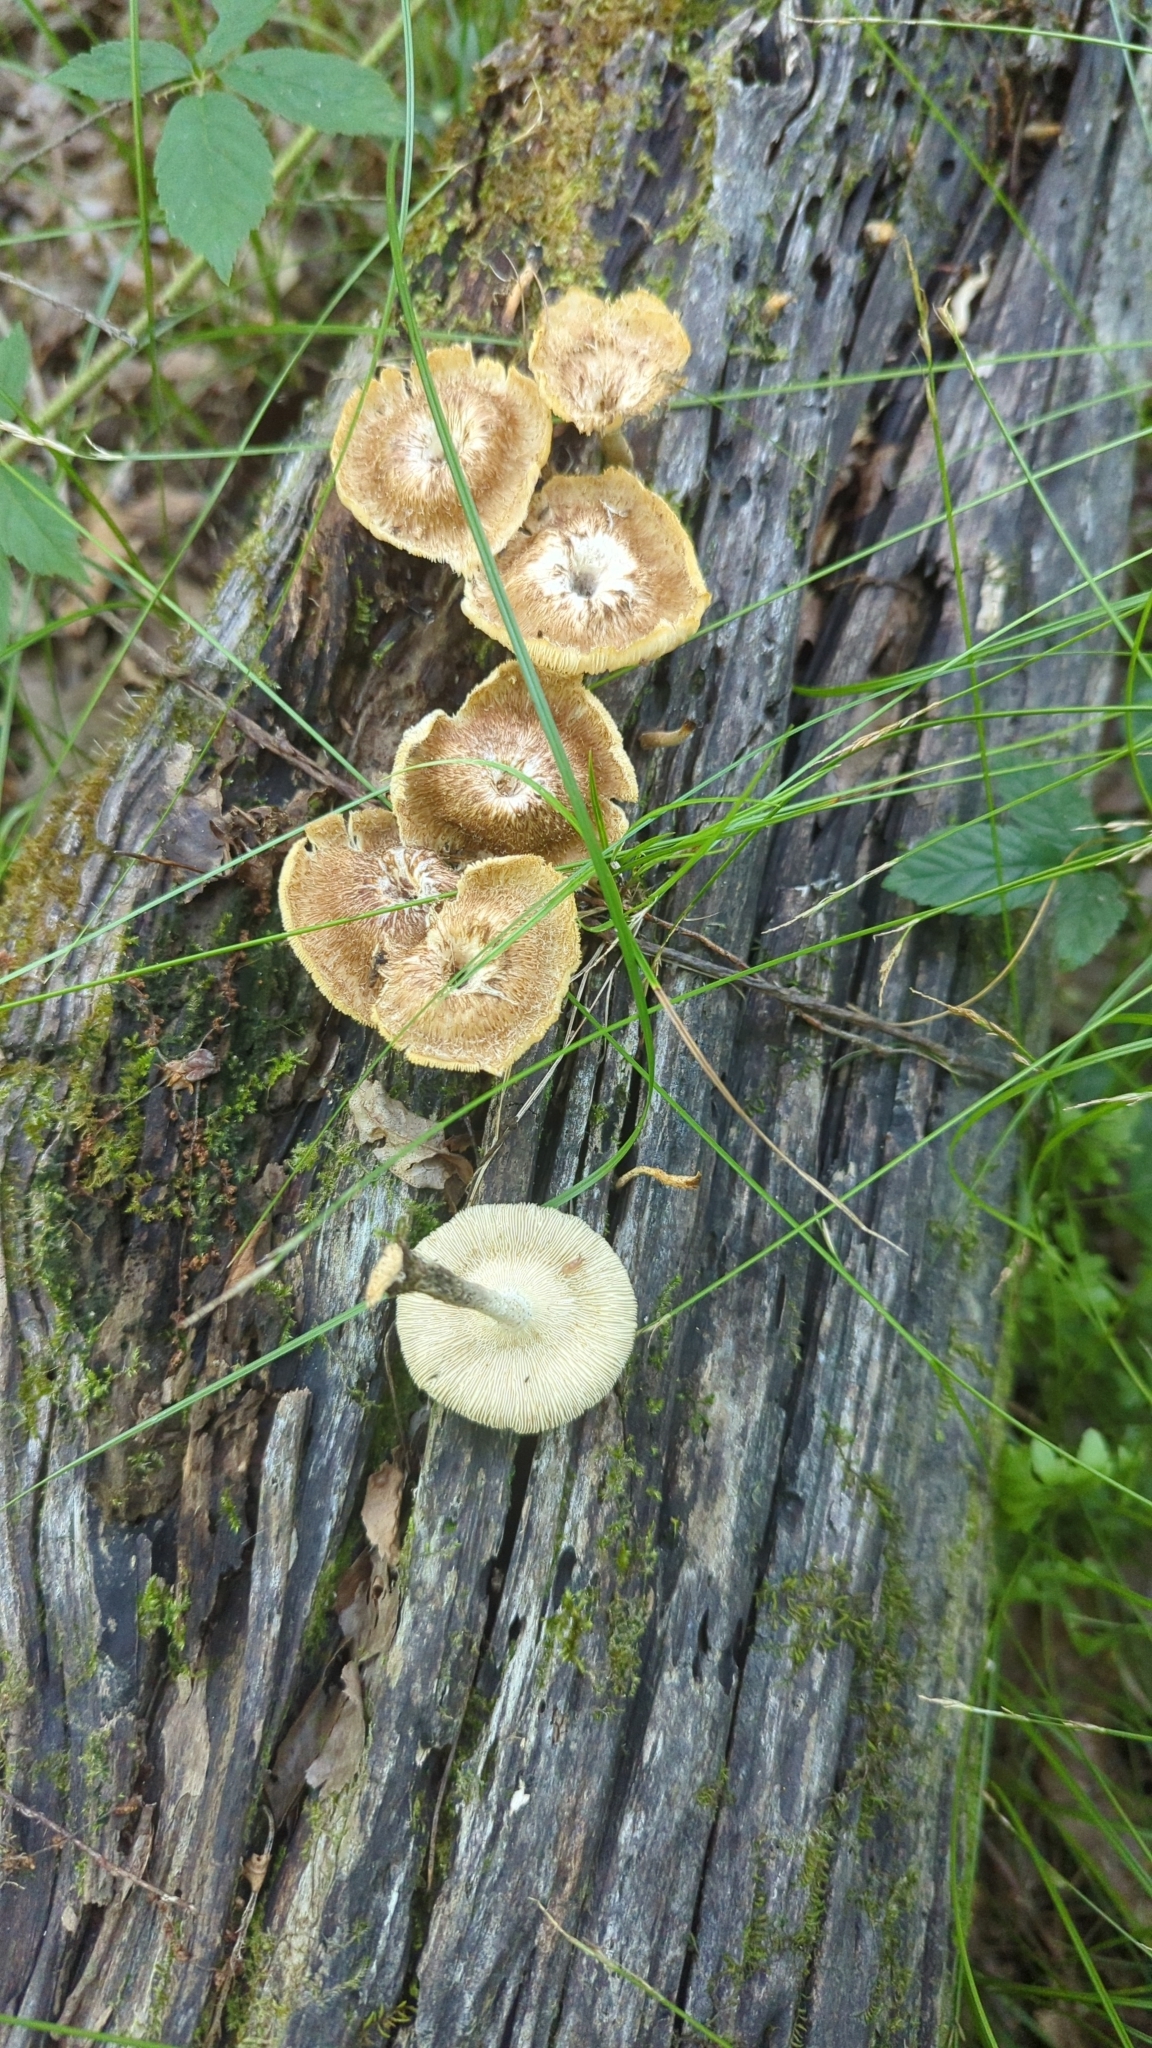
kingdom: Fungi
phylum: Basidiomycota
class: Agaricomycetes
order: Polyporales
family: Polyporaceae
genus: Lentinus
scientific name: Lentinus crinitus
